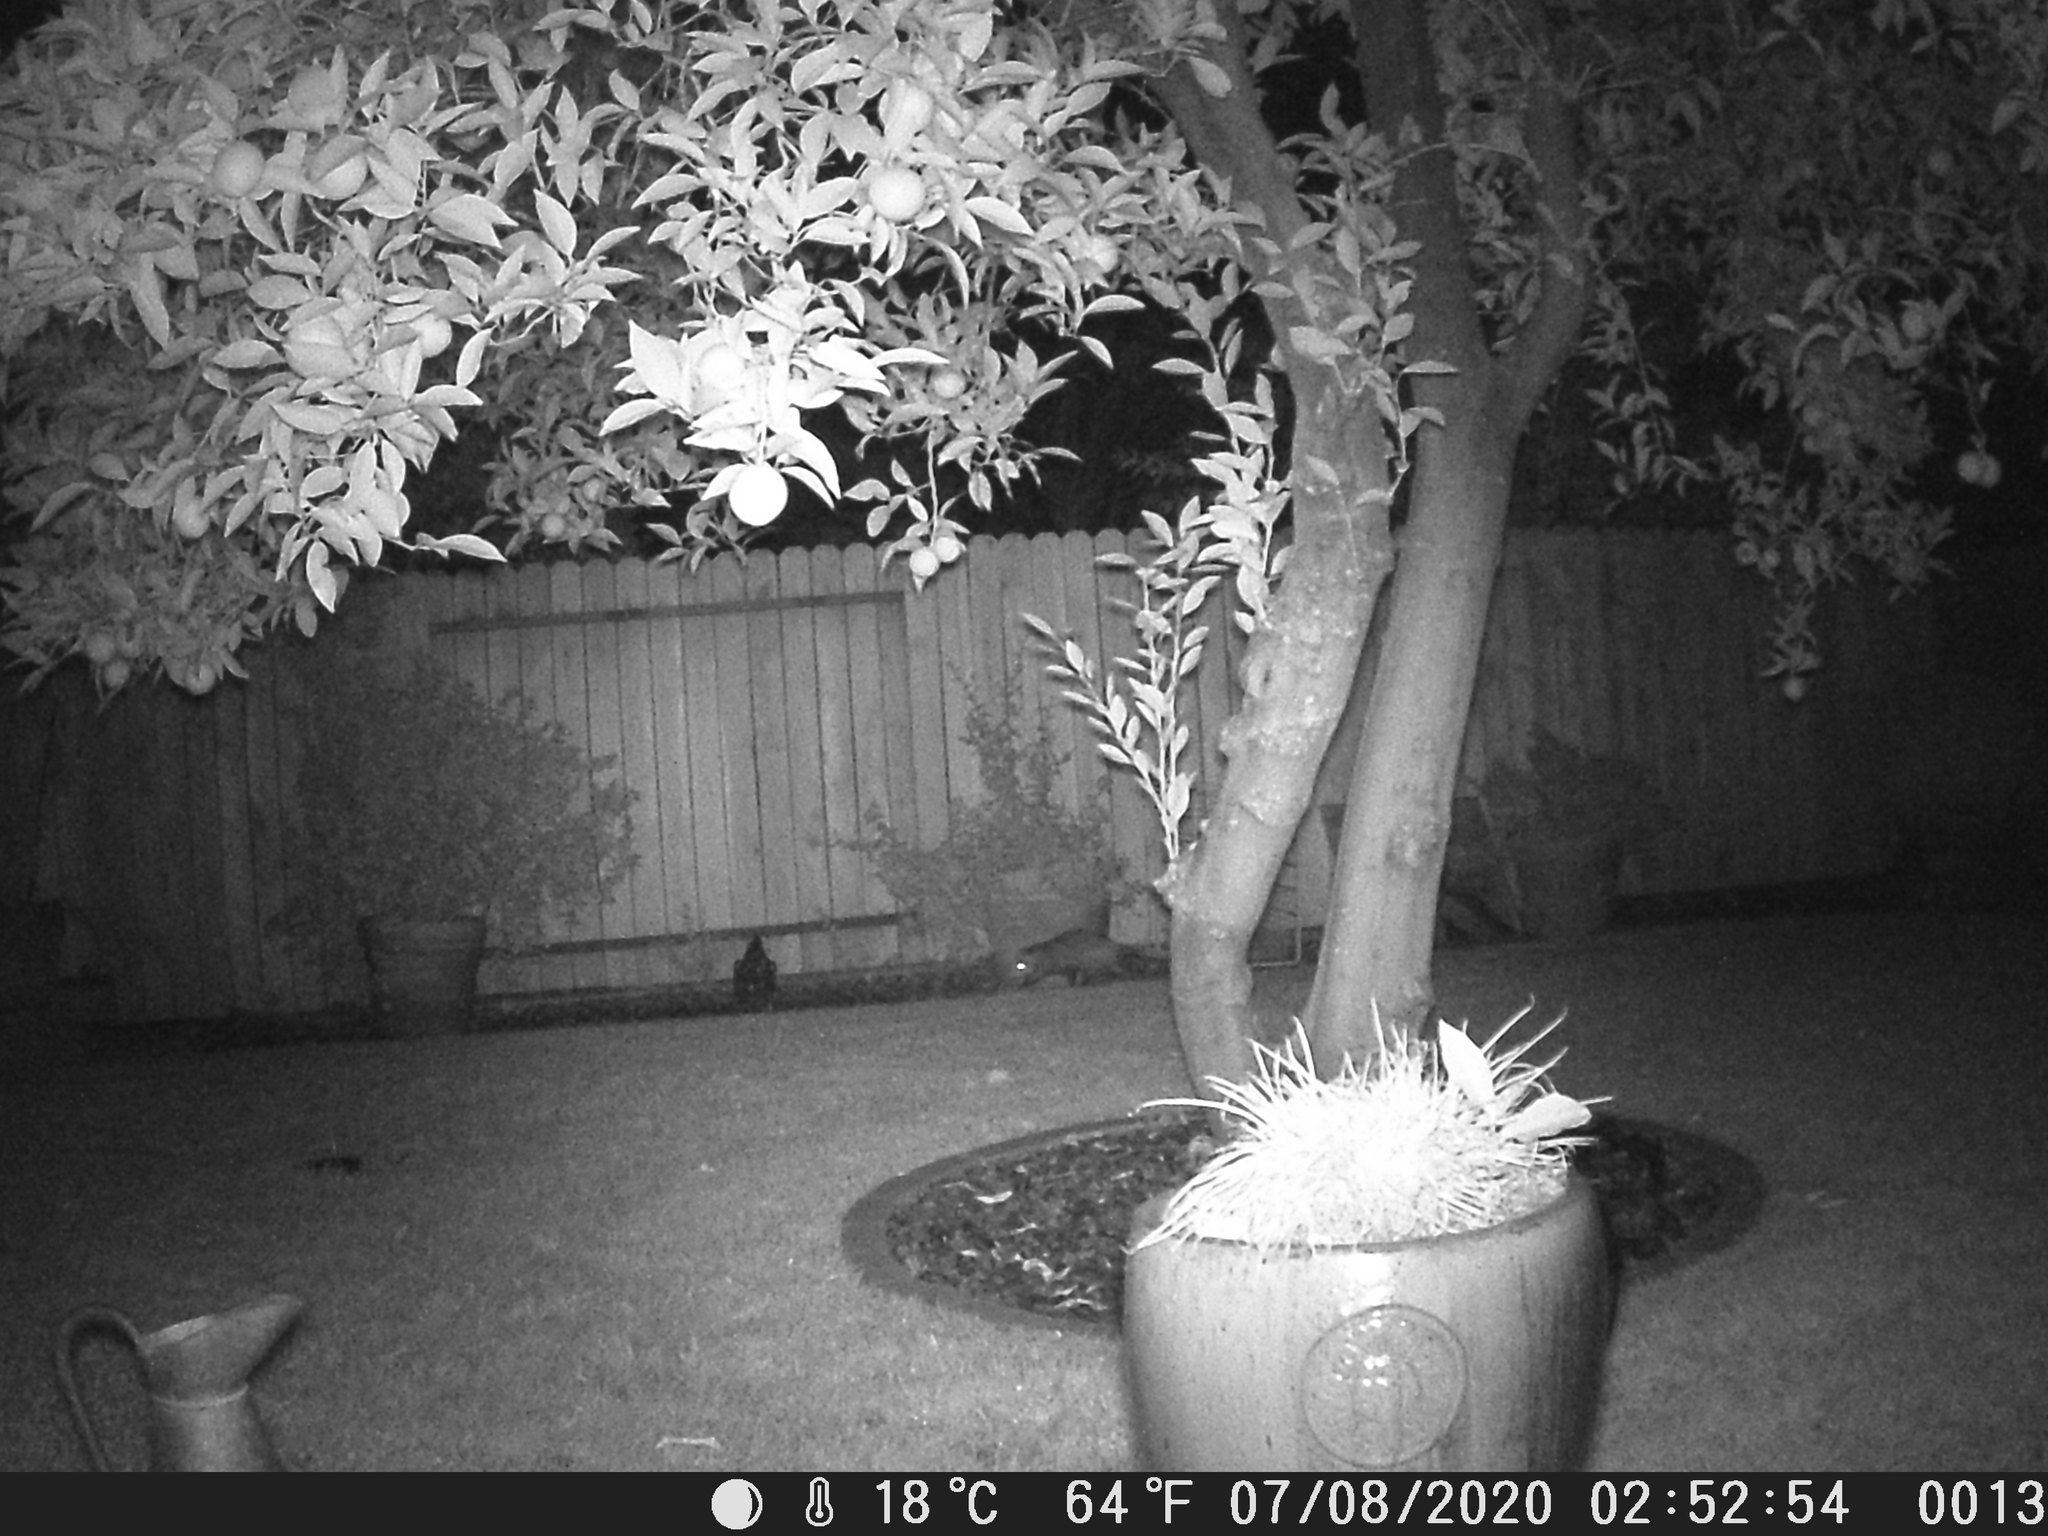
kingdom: Animalia
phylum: Chordata
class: Mammalia
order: Didelphimorphia
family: Didelphidae
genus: Didelphis
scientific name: Didelphis virginiana
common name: Virginia opossum
